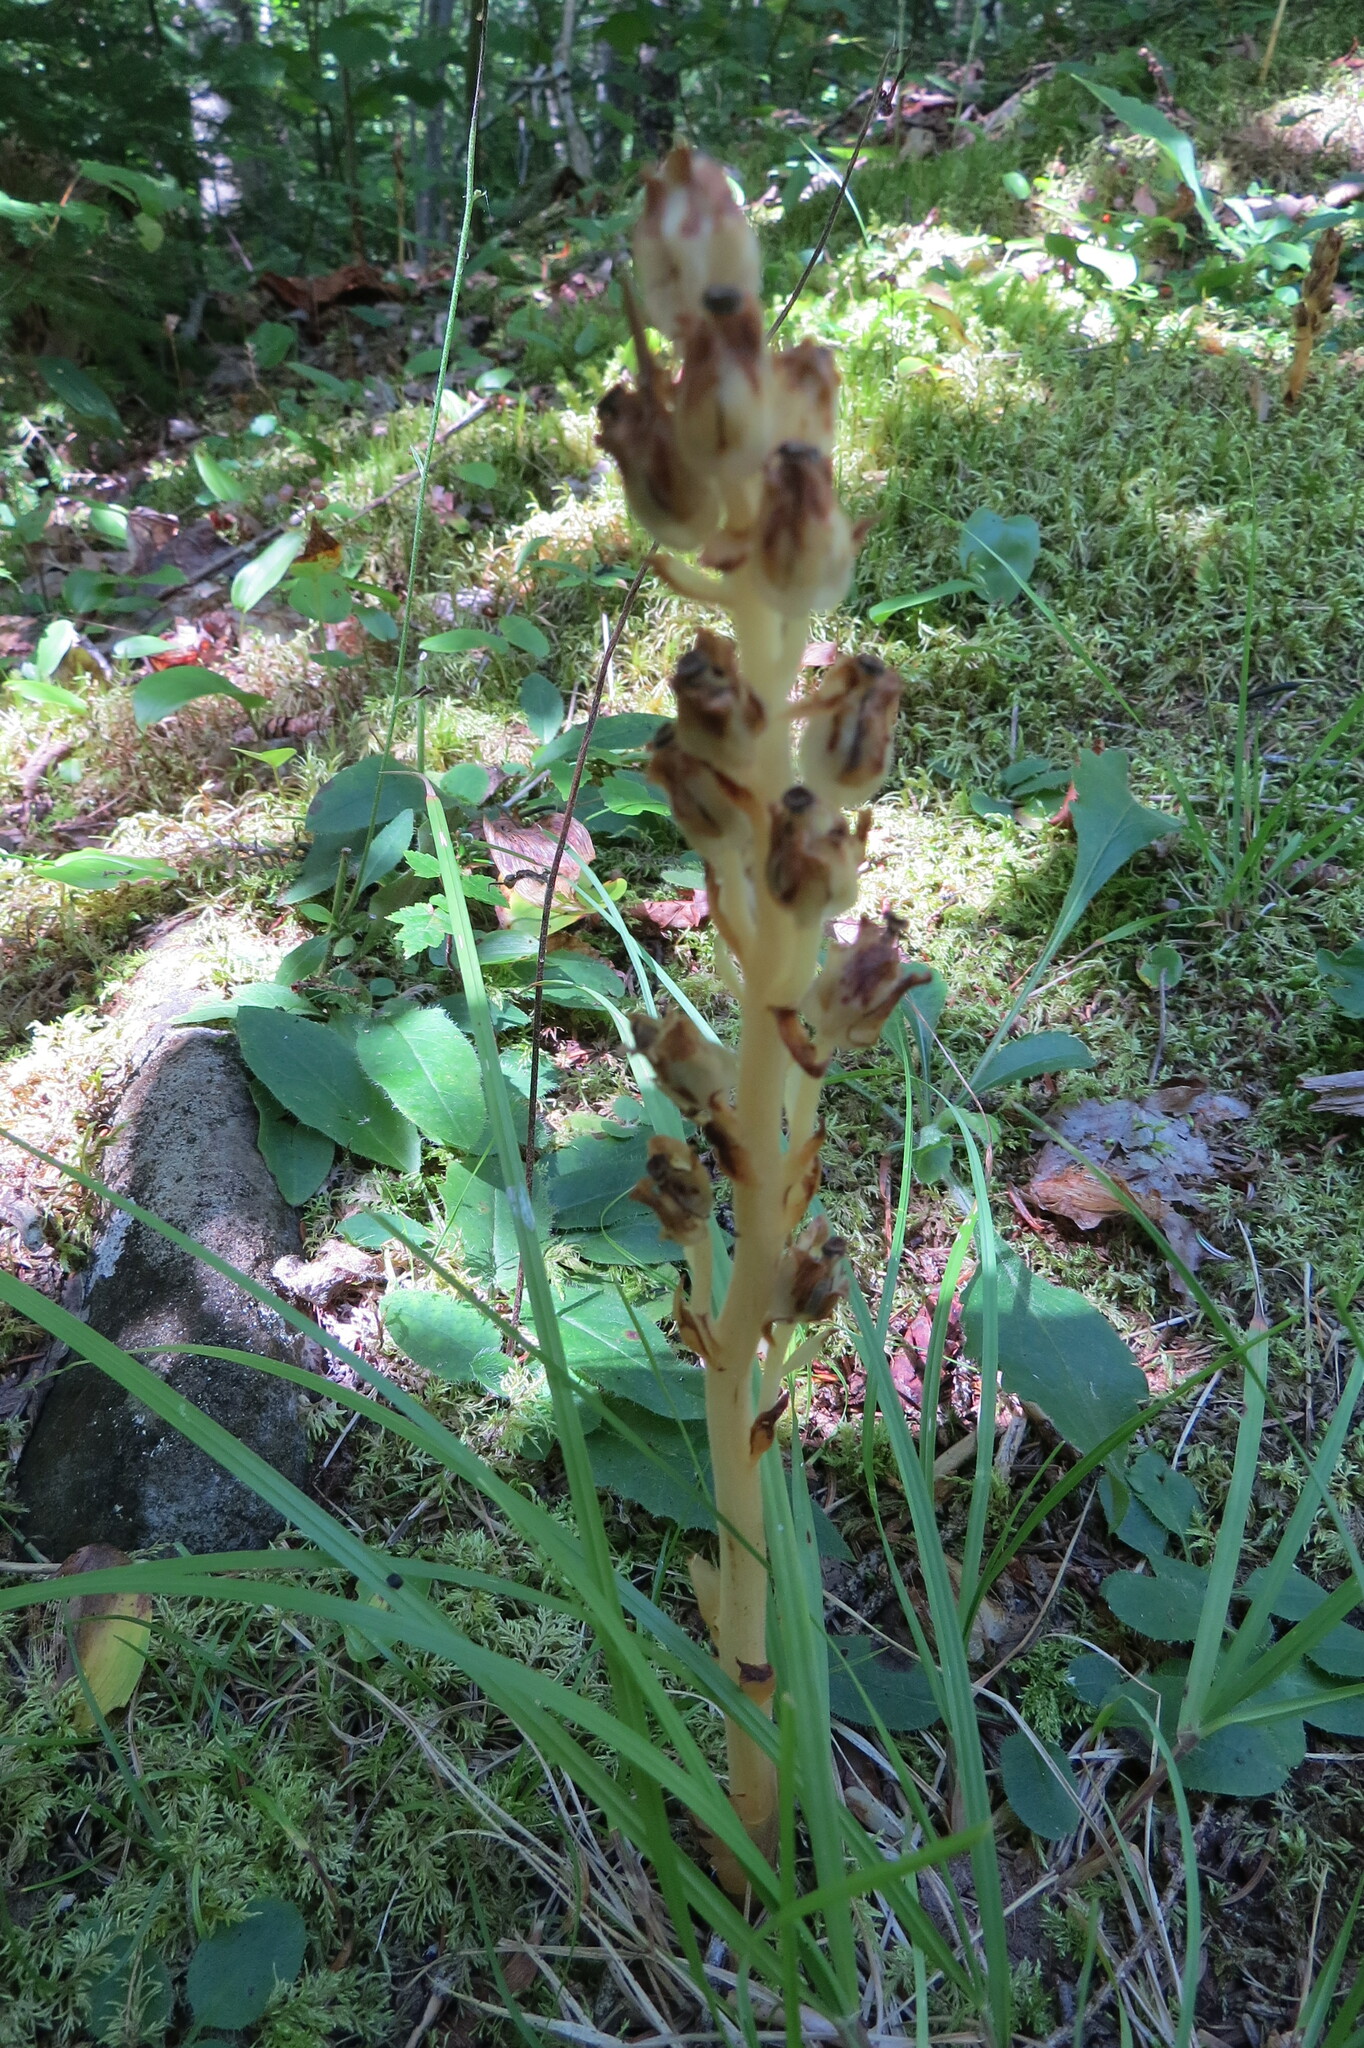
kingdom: Plantae
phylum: Tracheophyta
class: Magnoliopsida
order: Ericales
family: Ericaceae
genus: Hypopitys
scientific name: Hypopitys monotropa
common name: Yellow bird's-nest
